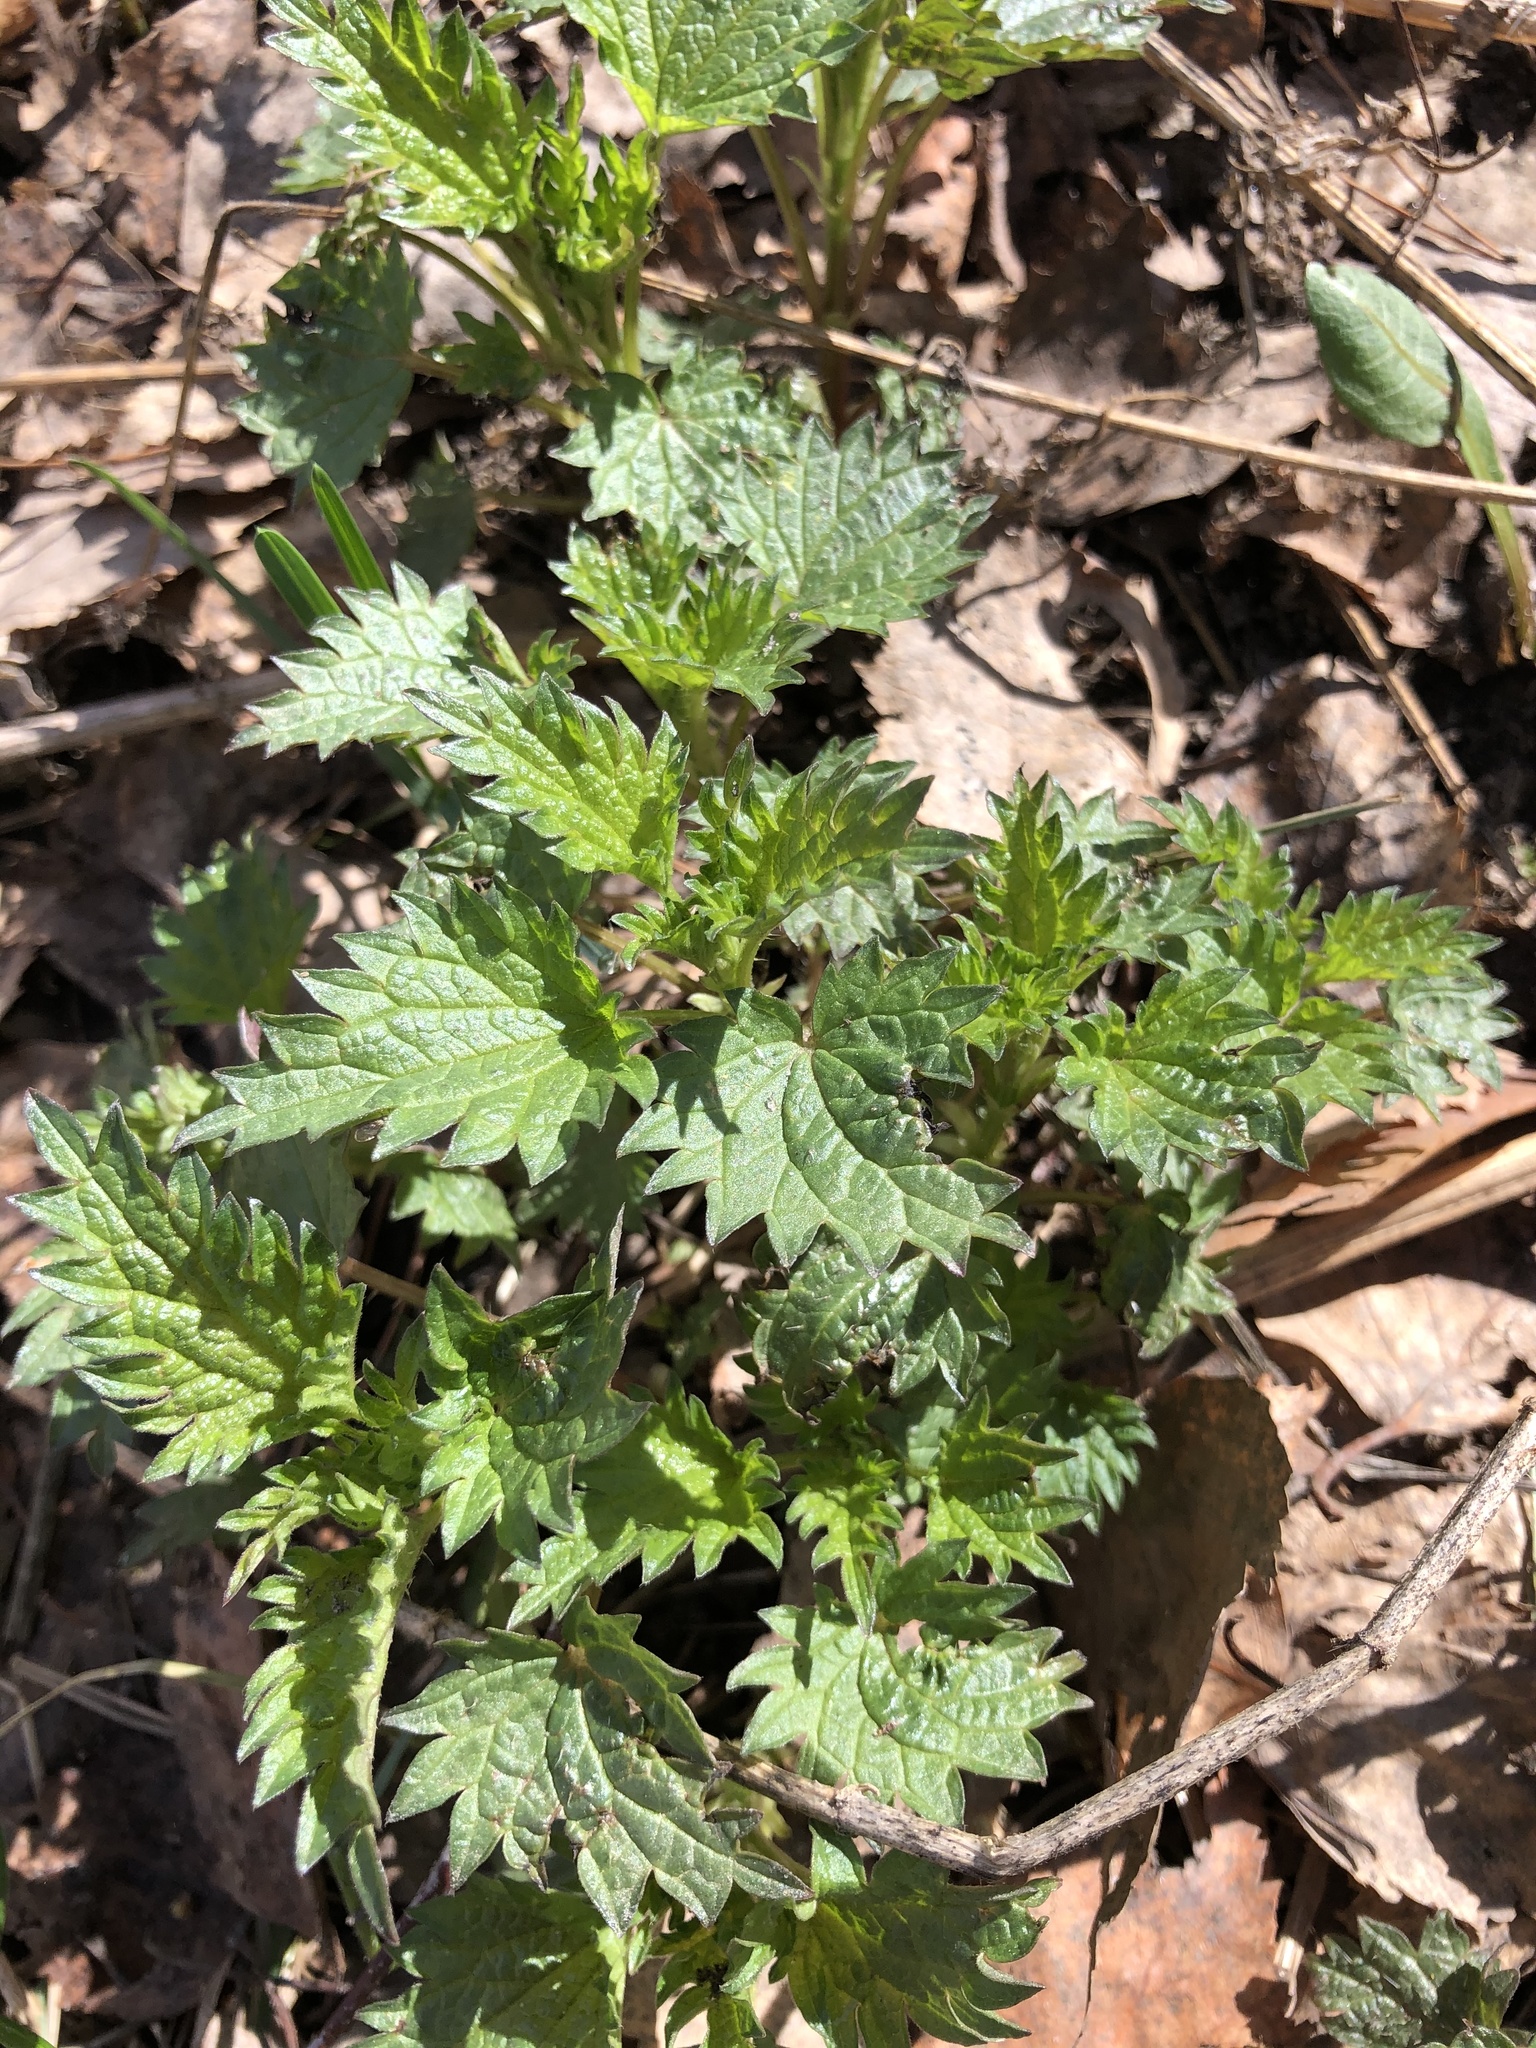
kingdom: Plantae
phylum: Tracheophyta
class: Magnoliopsida
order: Rosales
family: Urticaceae
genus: Urtica
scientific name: Urtica dioica
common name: Common nettle
